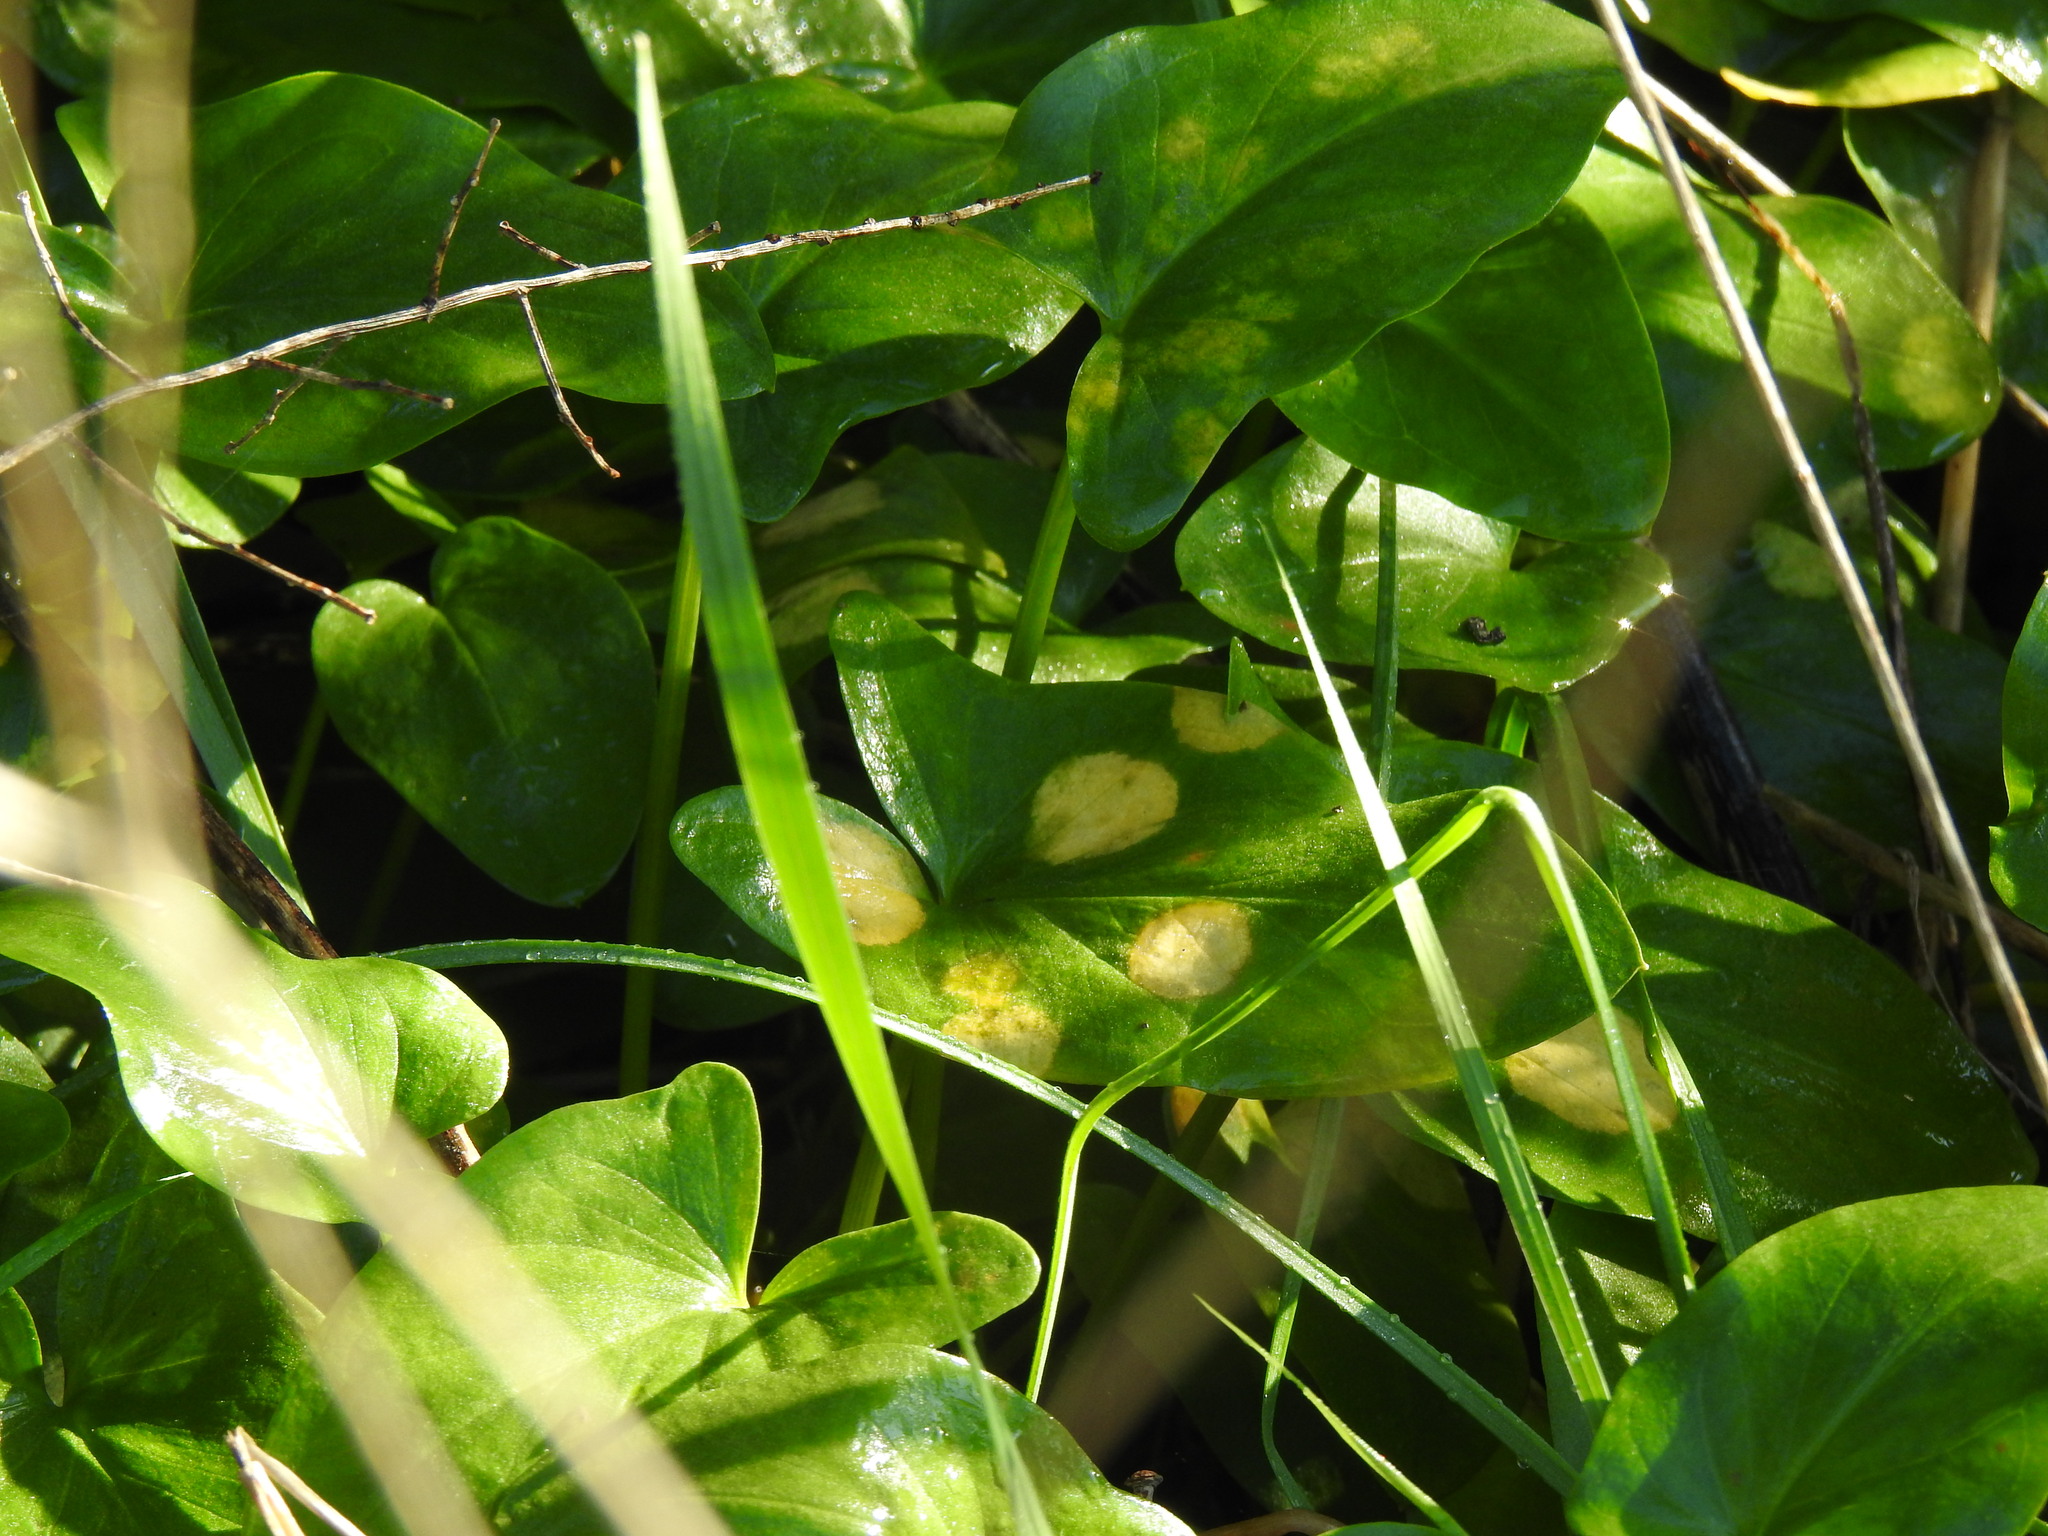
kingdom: Chromista
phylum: Ochrophyta
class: Xanthophyceae
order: Phyllosiphonales
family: Phyllosiphonaceae
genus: Phyllosiphon
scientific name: Phyllosiphon arisari
